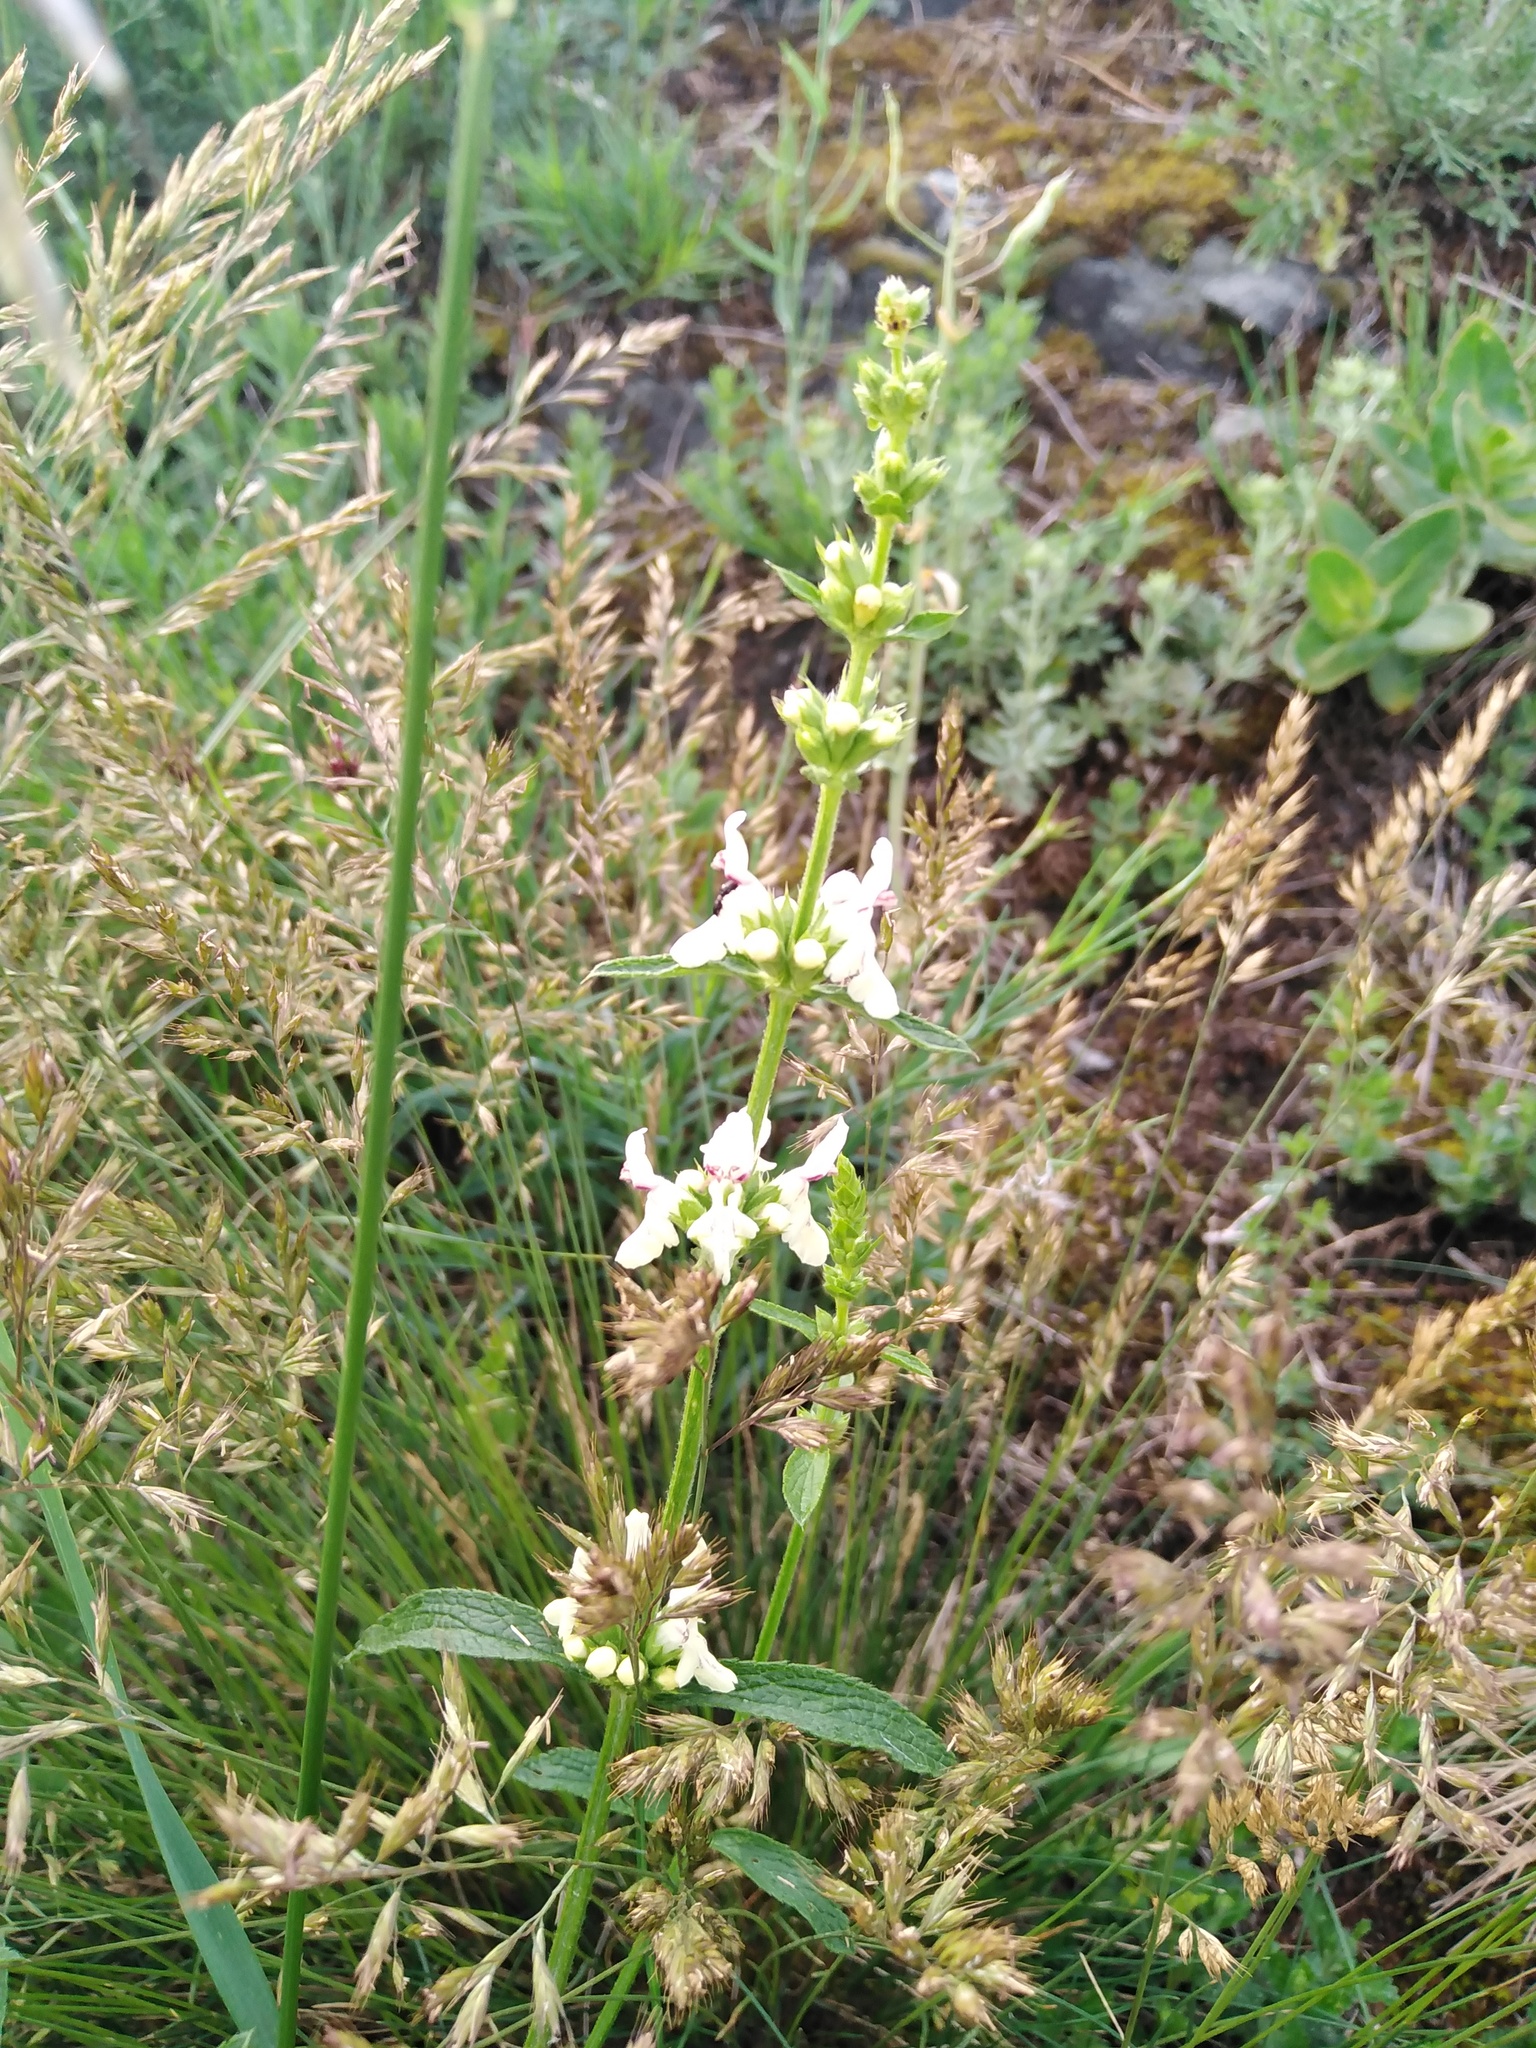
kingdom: Plantae
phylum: Tracheophyta
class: Magnoliopsida
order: Lamiales
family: Lamiaceae
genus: Stachys
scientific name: Stachys recta
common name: Perennial yellow-woundwort
